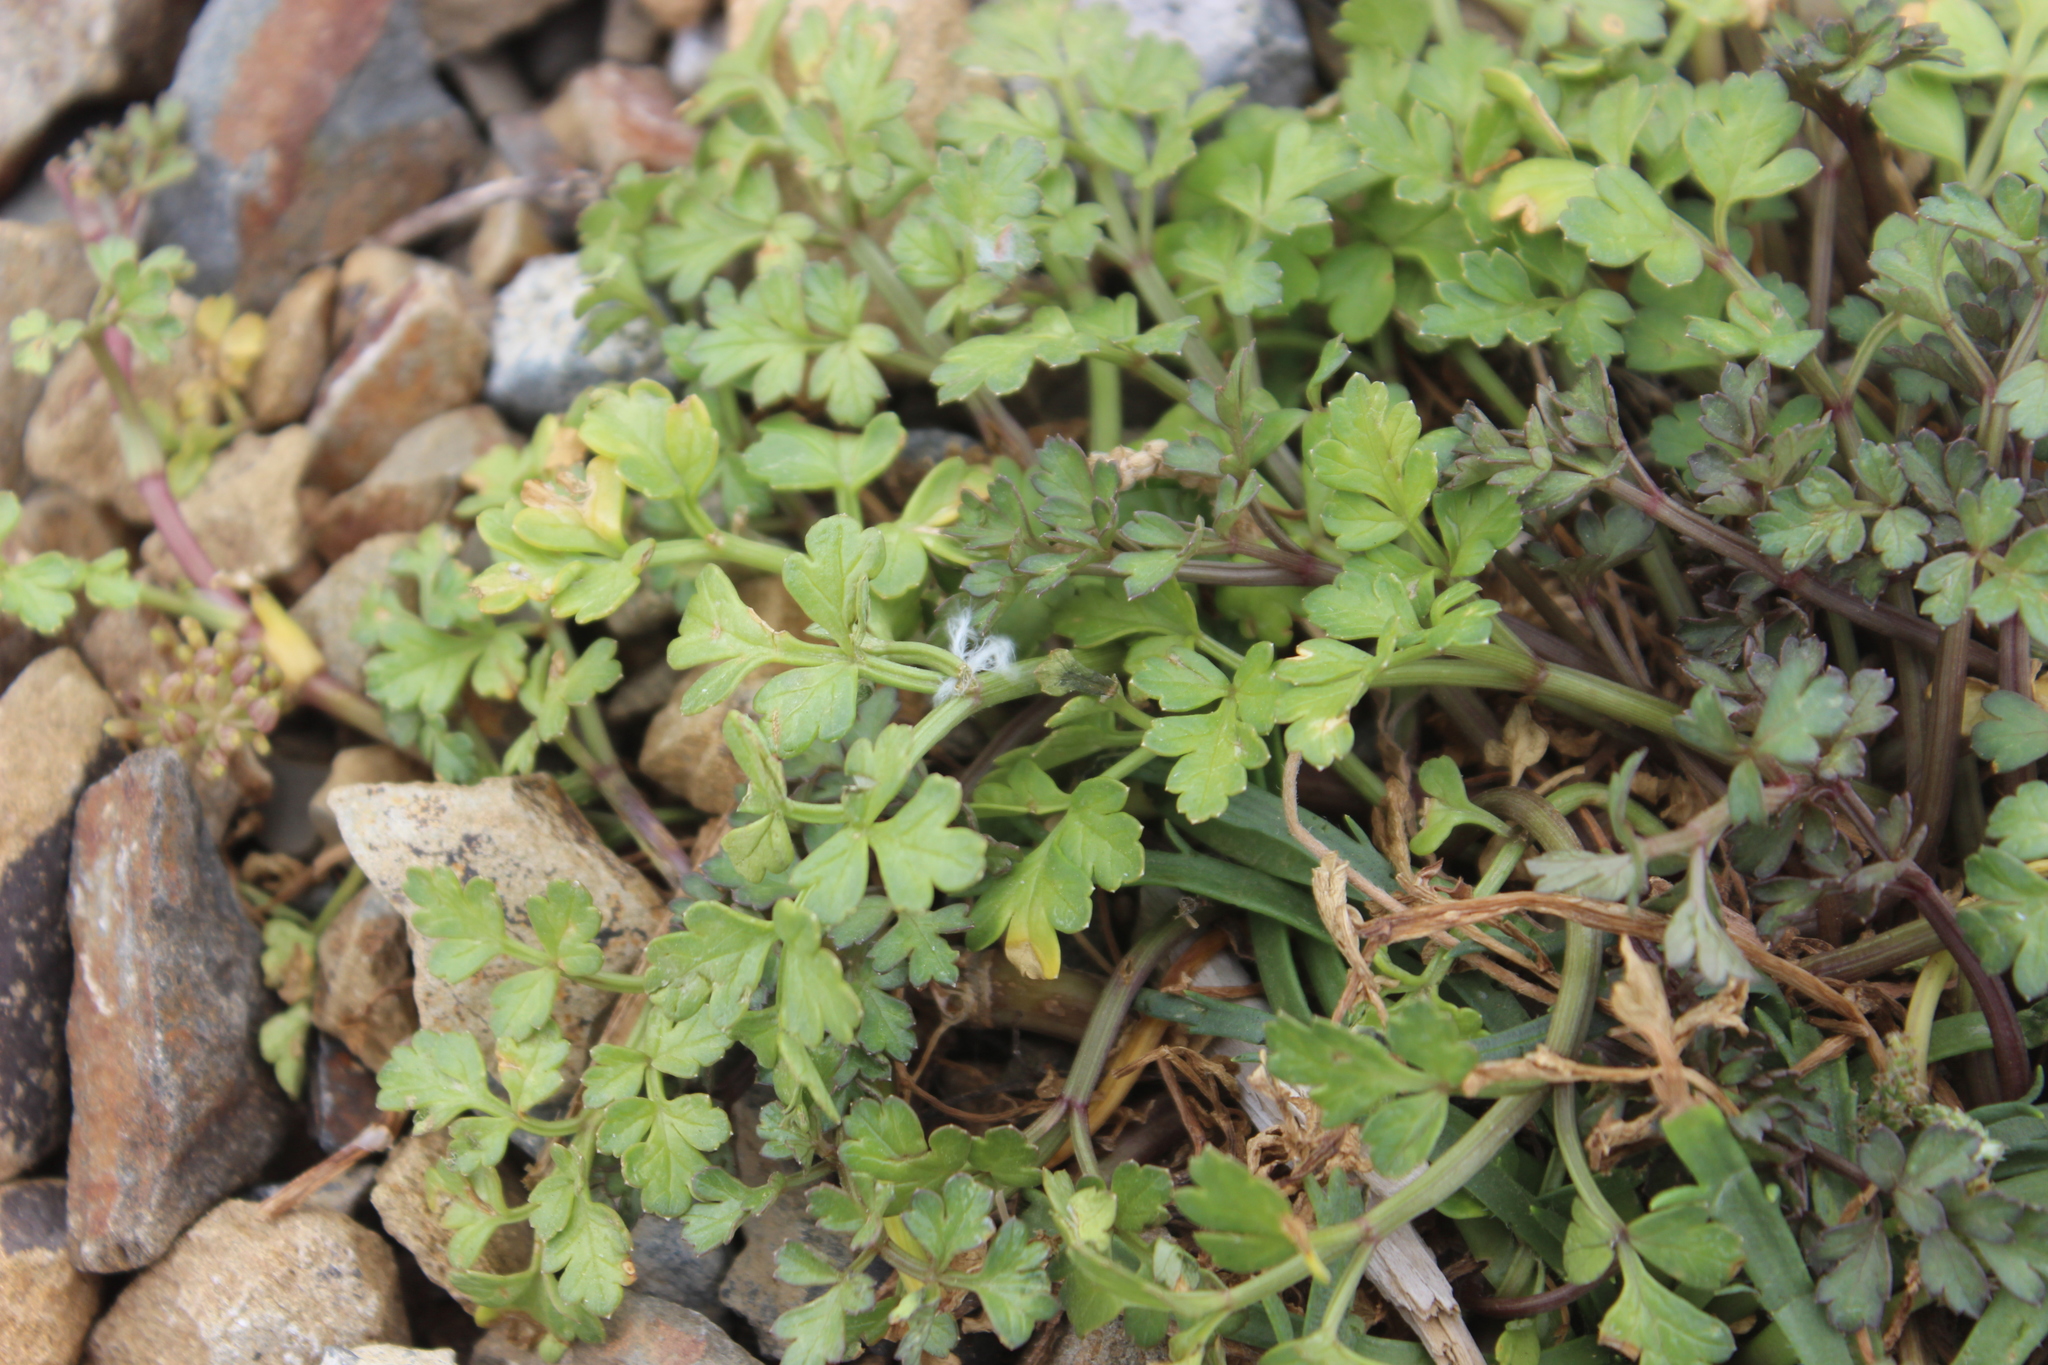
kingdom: Plantae
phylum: Tracheophyta
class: Magnoliopsida
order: Apiales
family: Apiaceae
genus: Apium
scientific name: Apium prostratum
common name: Prostrate marshwort
